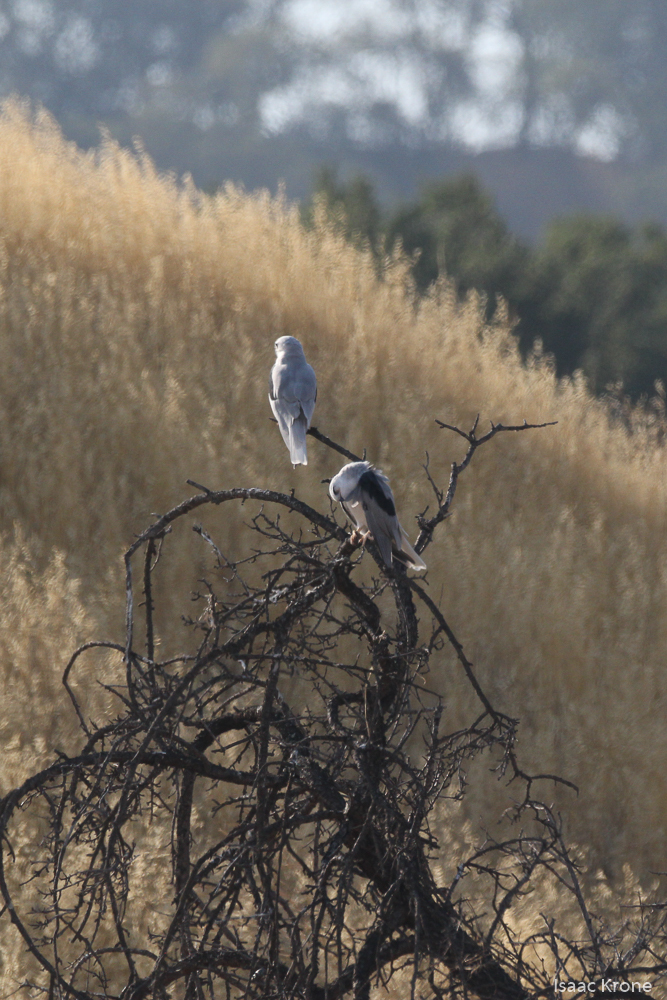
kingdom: Animalia
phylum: Chordata
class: Aves
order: Accipitriformes
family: Accipitridae
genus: Elanus
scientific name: Elanus leucurus
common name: White-tailed kite
